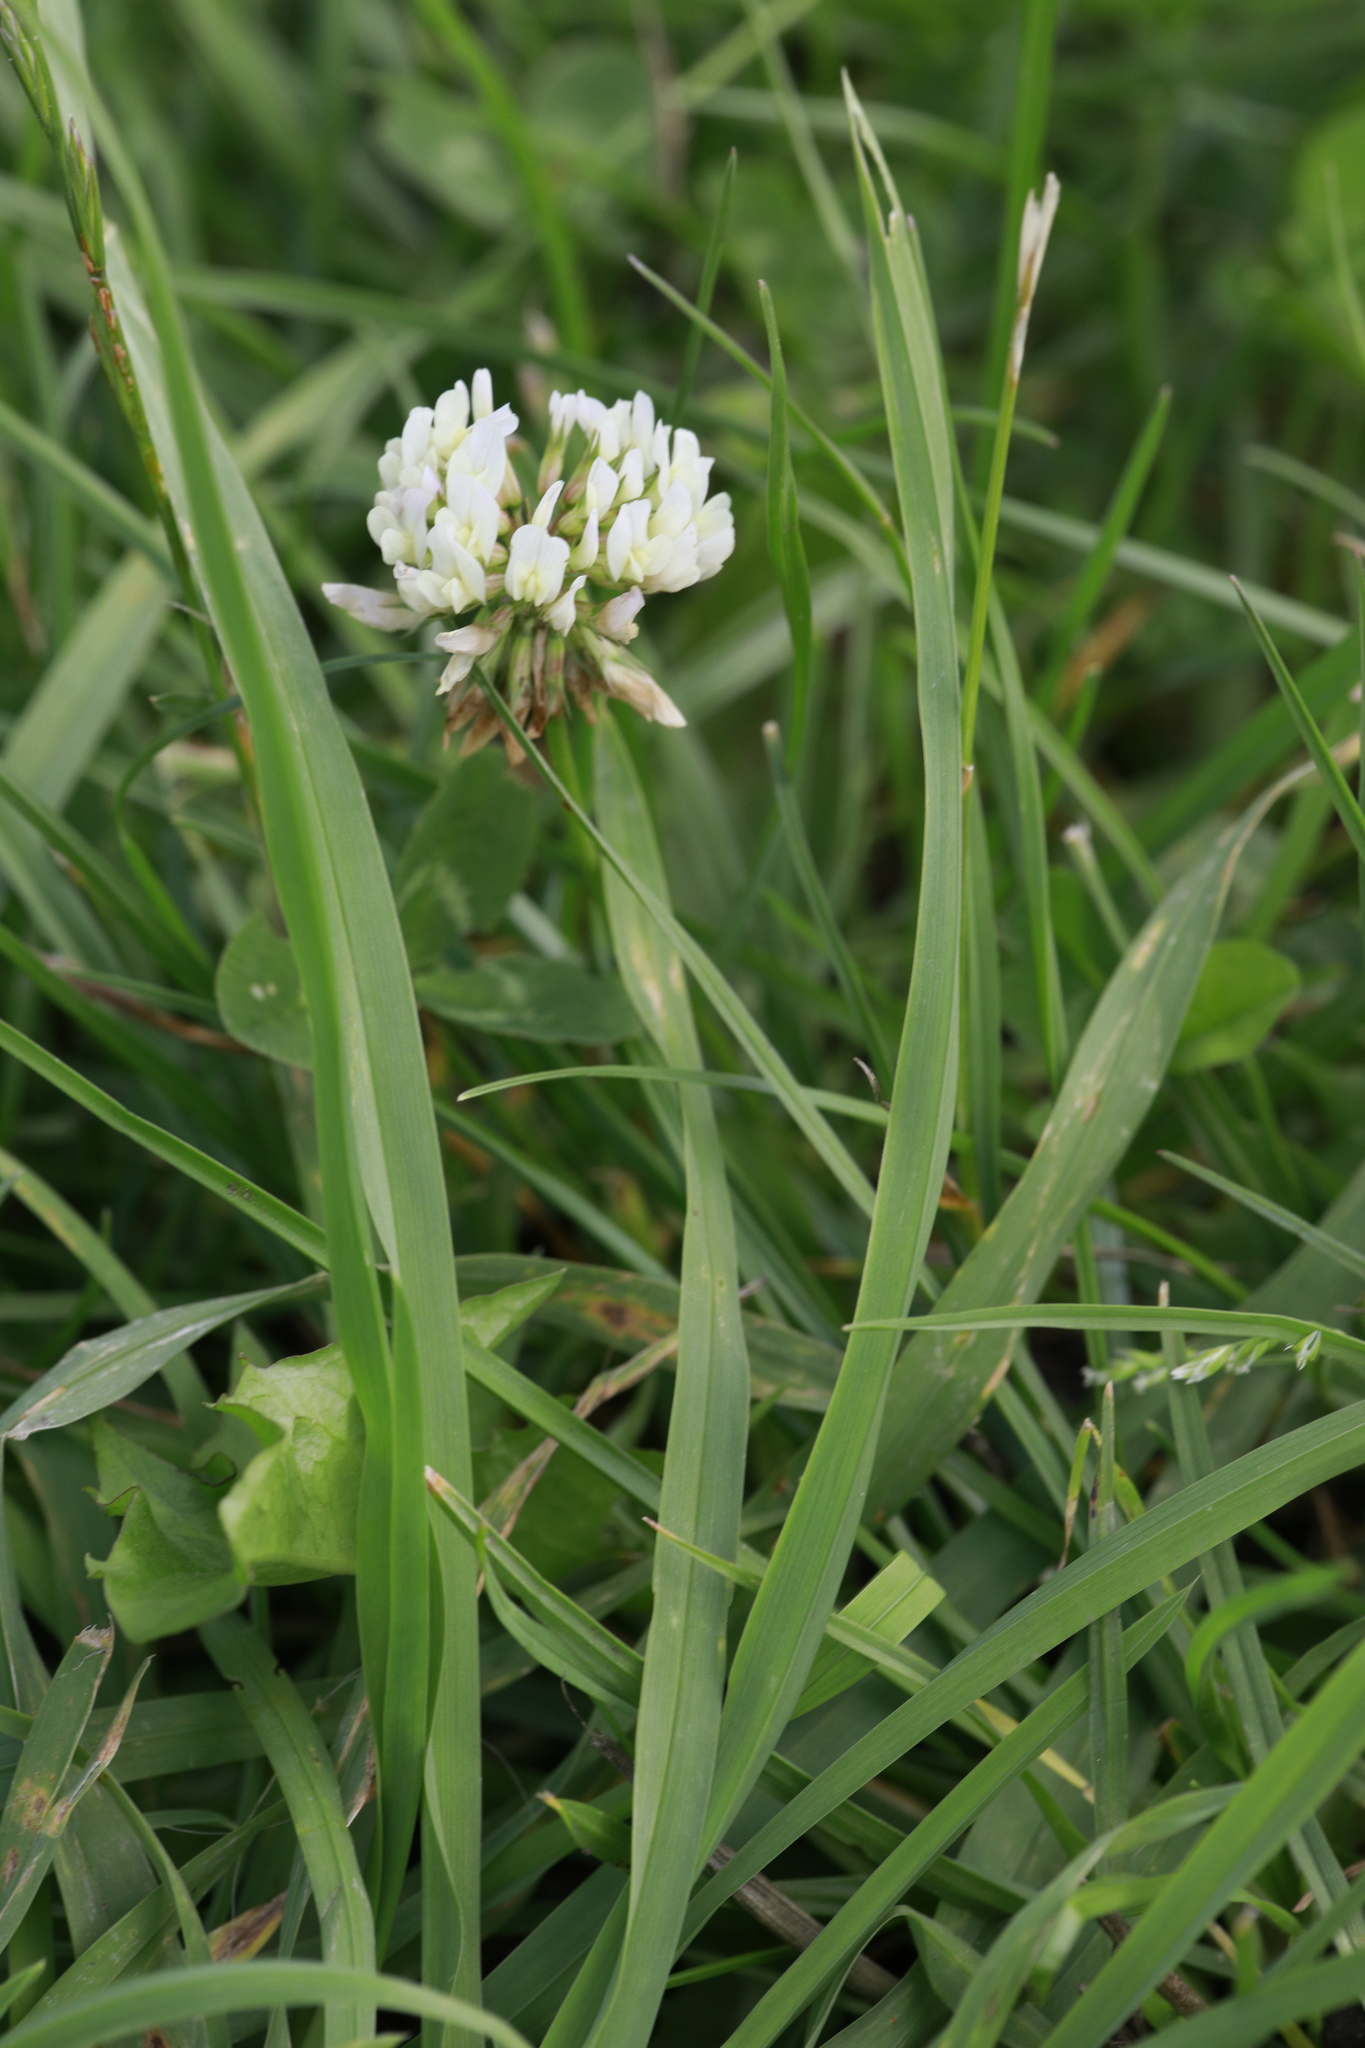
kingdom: Plantae
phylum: Tracheophyta
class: Magnoliopsida
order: Fabales
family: Fabaceae
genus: Trifolium
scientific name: Trifolium repens
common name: White clover
